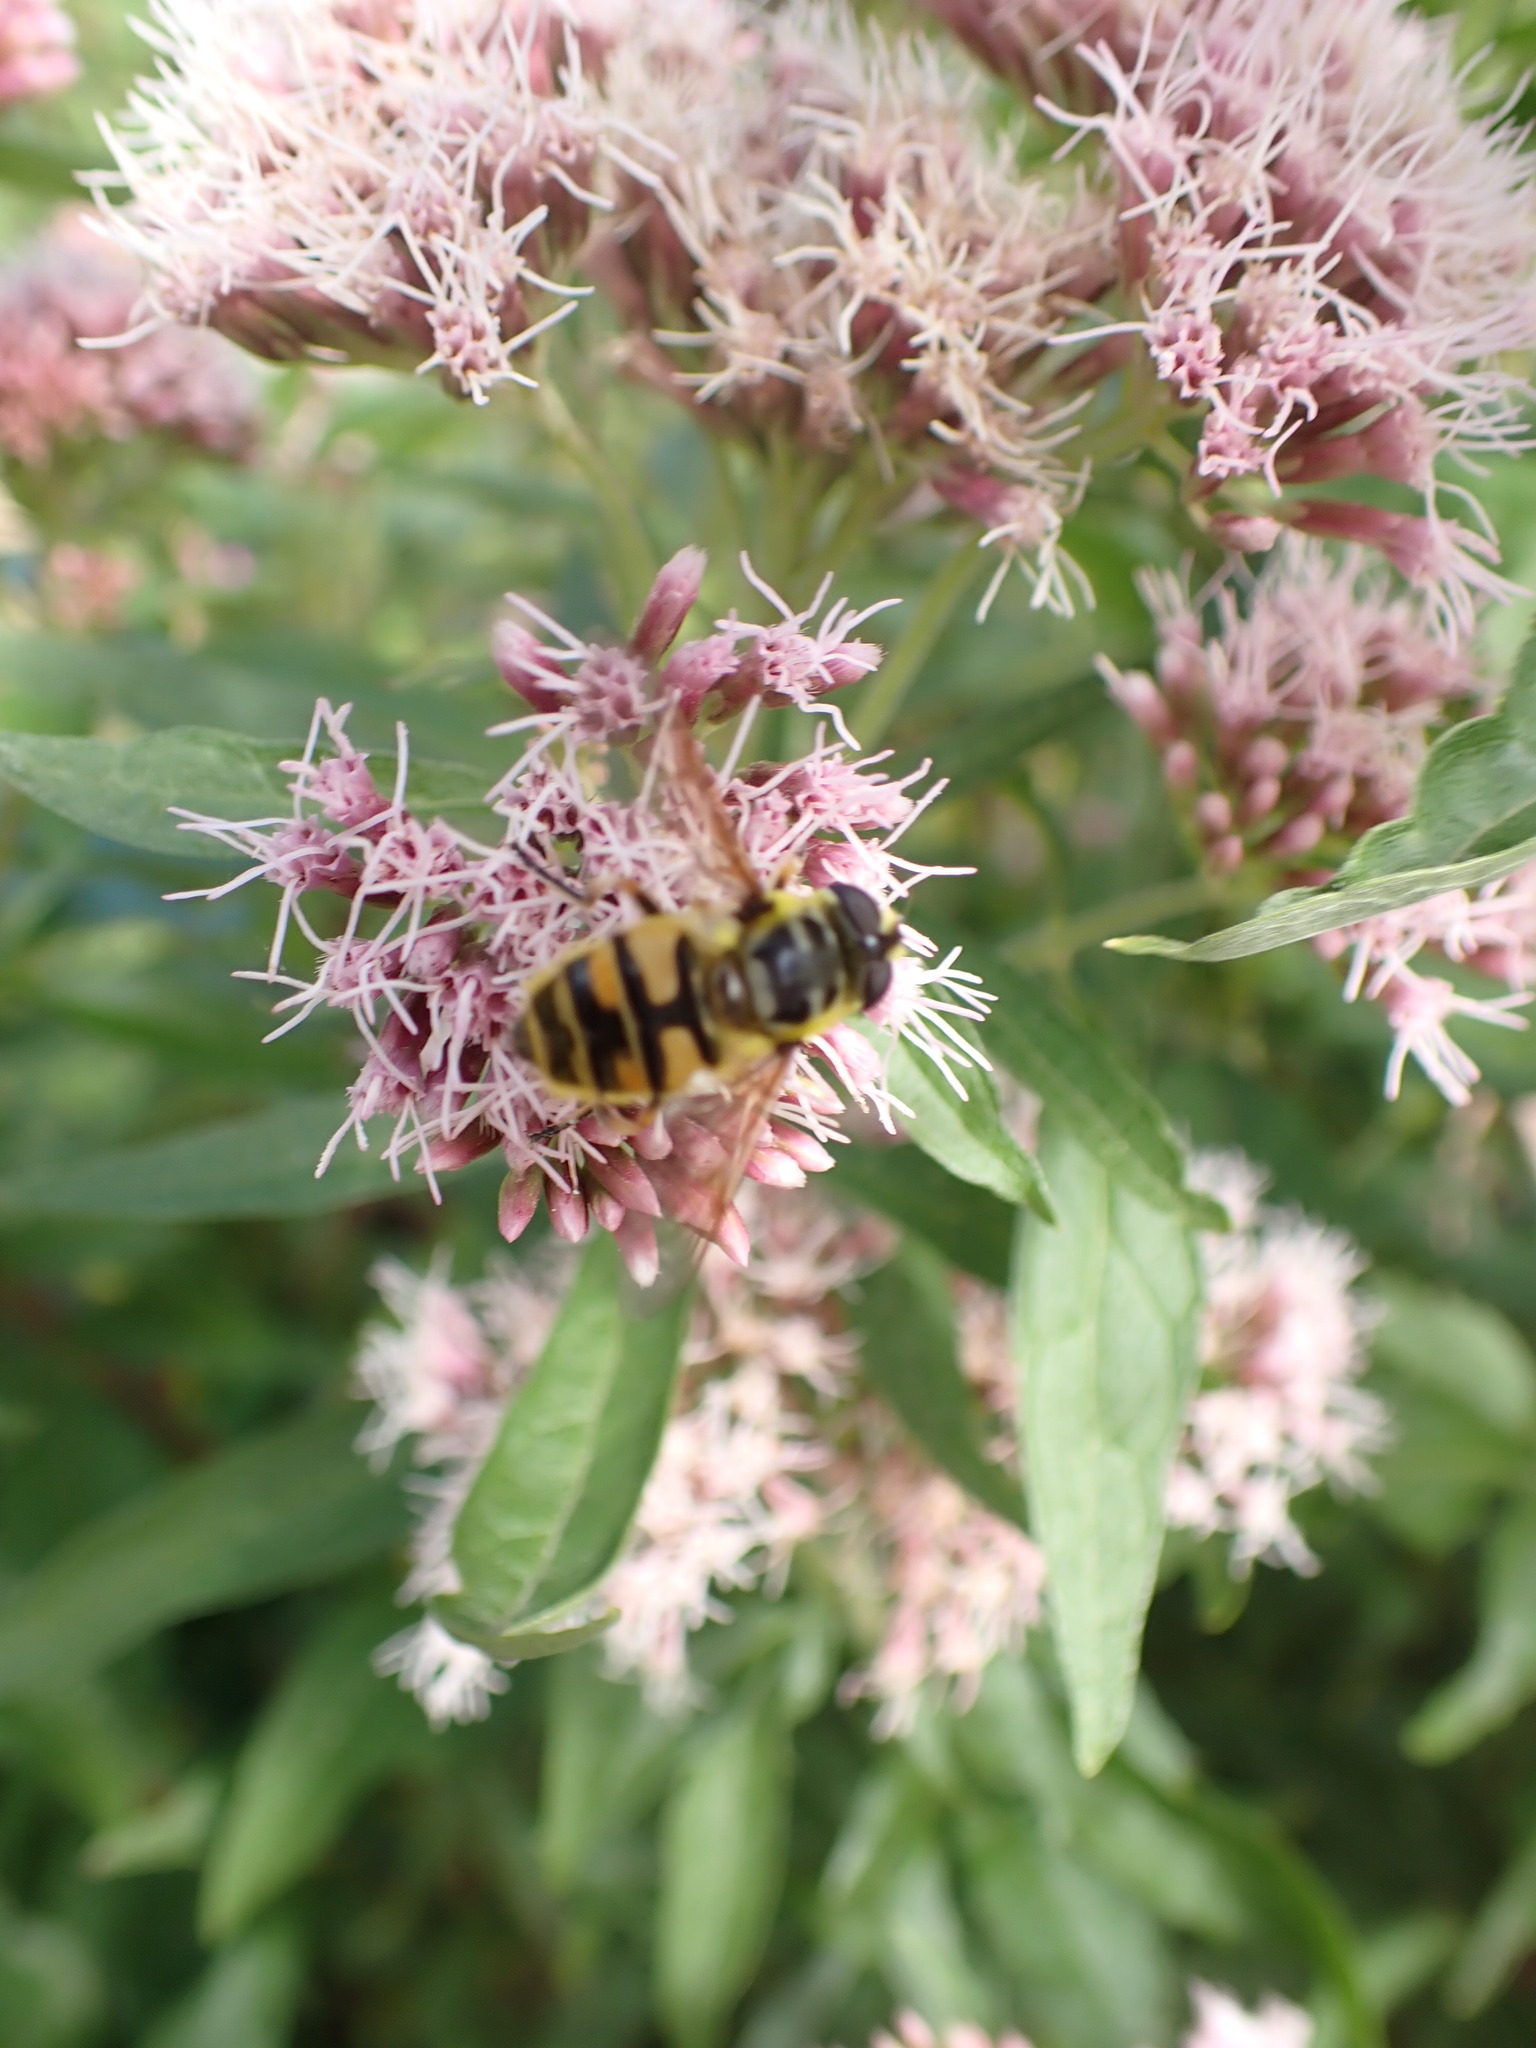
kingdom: Animalia
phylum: Arthropoda
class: Insecta
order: Diptera
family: Syrphidae
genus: Myathropa
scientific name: Myathropa florea
